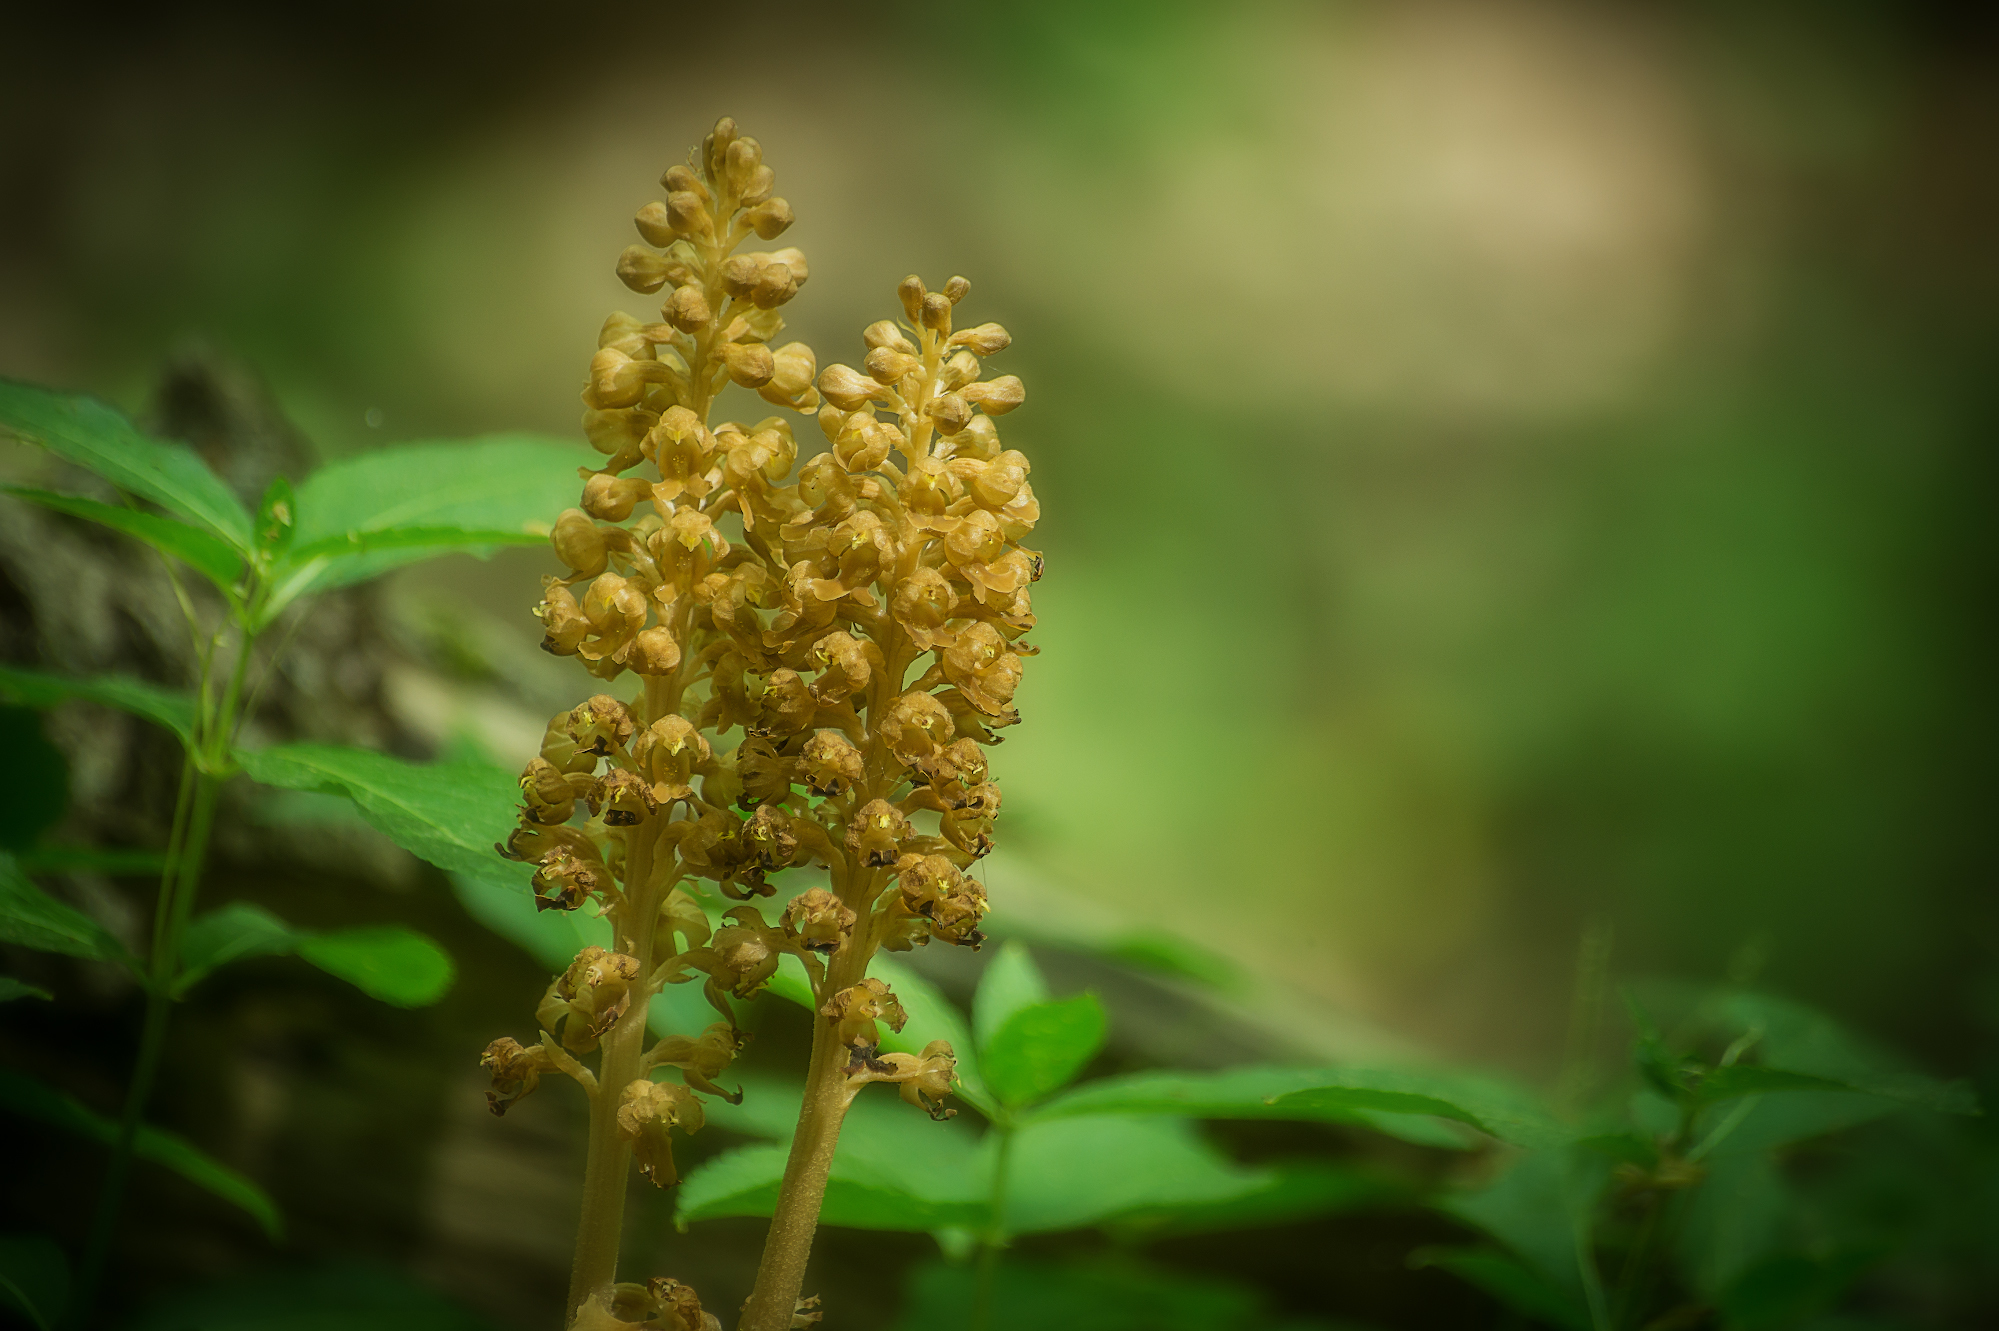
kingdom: Plantae
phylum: Tracheophyta
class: Liliopsida
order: Asparagales
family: Orchidaceae
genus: Neottia
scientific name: Neottia nidus-avis
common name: Bird's-nest orchid
